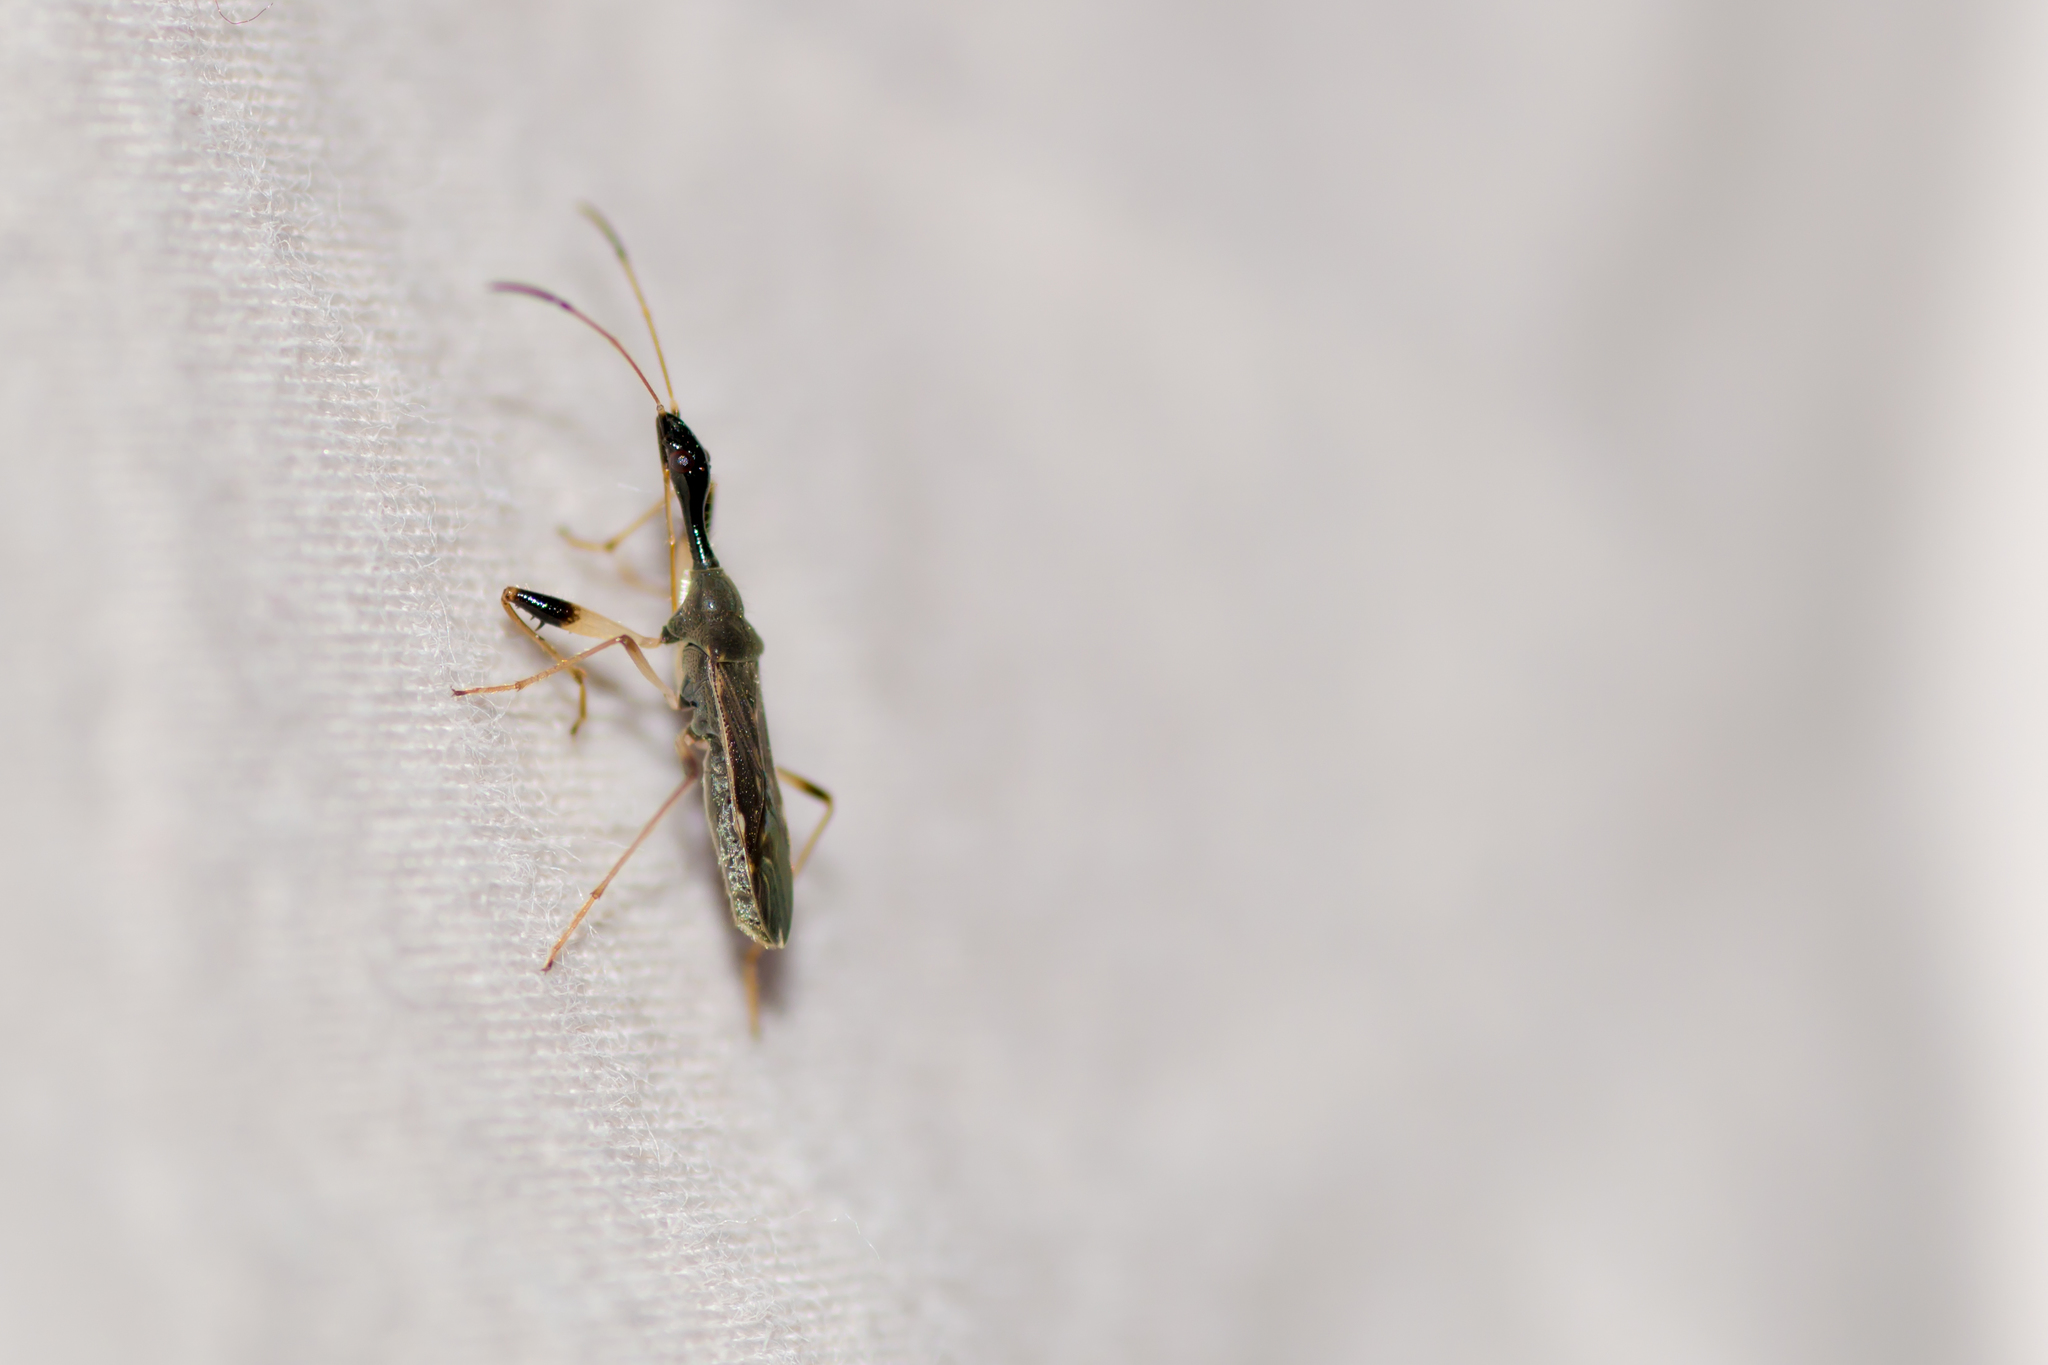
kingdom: Animalia
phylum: Arthropoda
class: Insecta
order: Hemiptera
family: Rhyparochromidae
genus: Myodocha
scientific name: Myodocha serripes
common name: Long-necked seed bug
